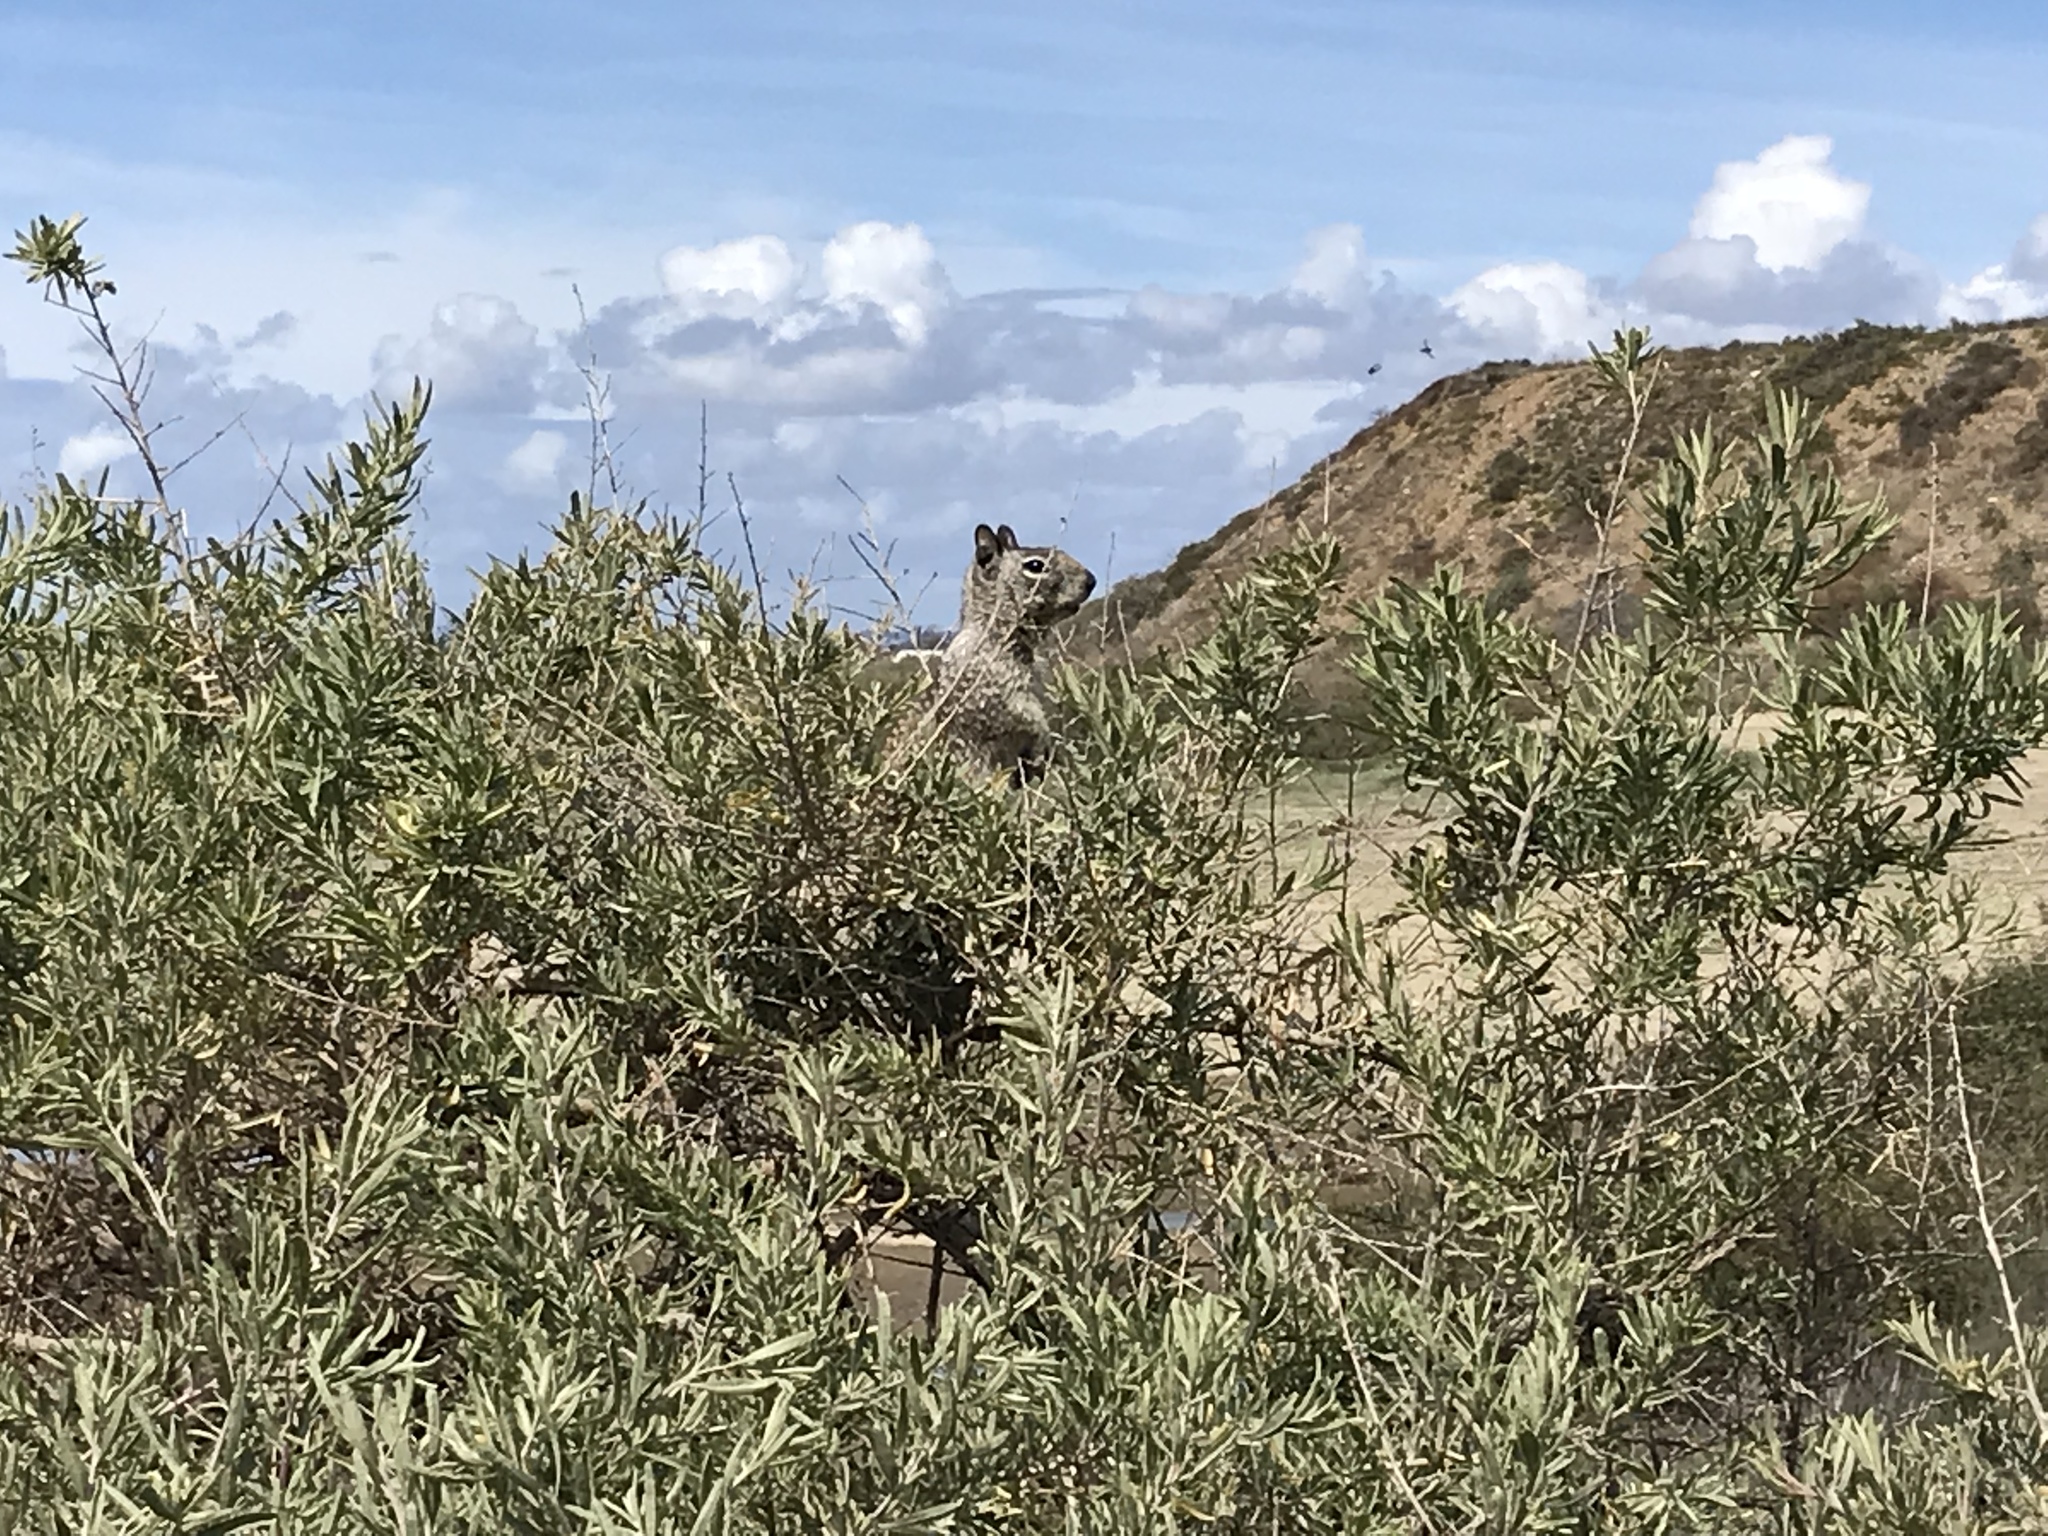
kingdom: Animalia
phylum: Chordata
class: Mammalia
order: Rodentia
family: Sciuridae
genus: Otospermophilus
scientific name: Otospermophilus beecheyi
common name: California ground squirrel
